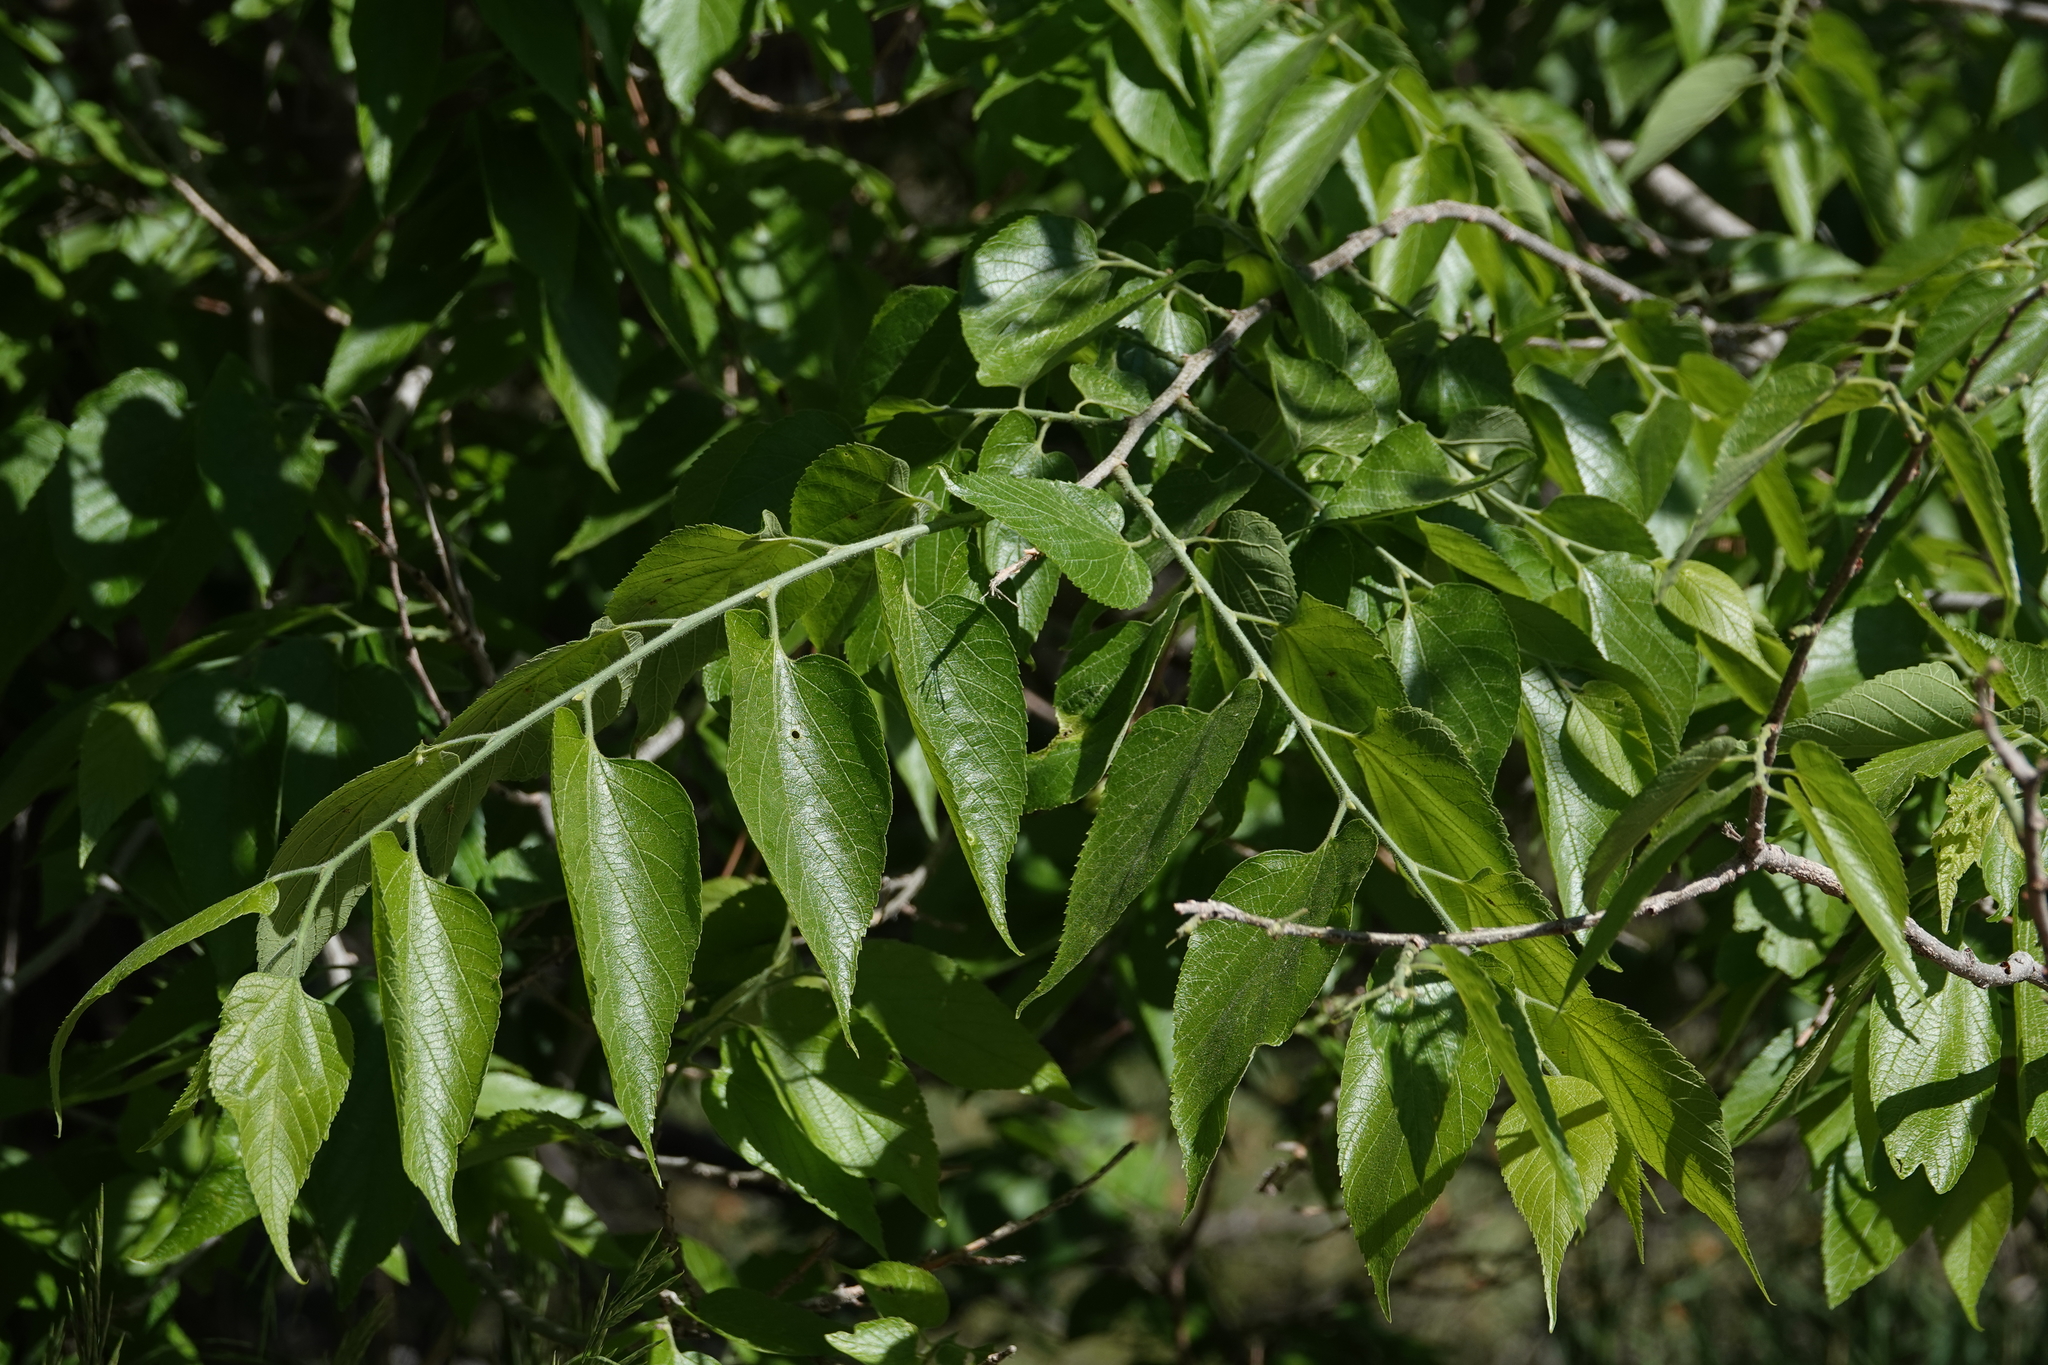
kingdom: Plantae
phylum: Tracheophyta
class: Magnoliopsida
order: Rosales
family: Cannabaceae
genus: Celtis
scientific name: Celtis occidentalis
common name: Common hackberry
